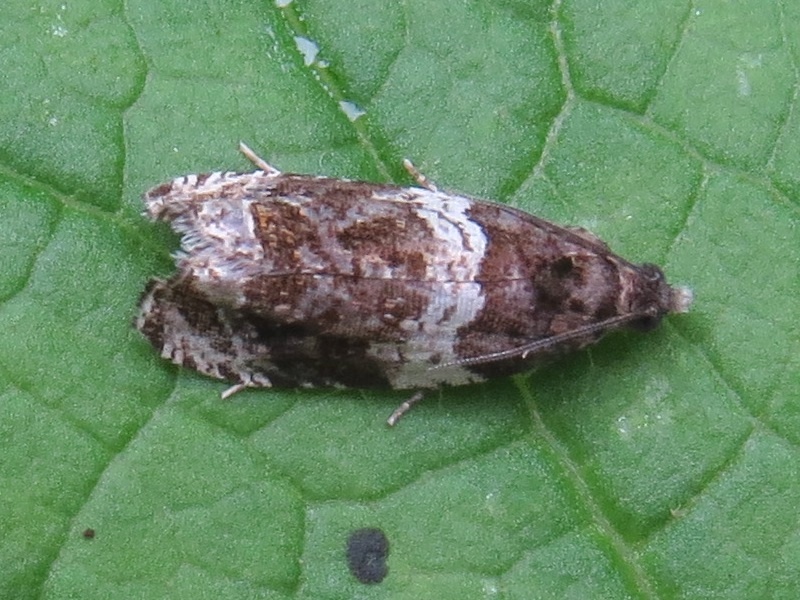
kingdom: Animalia
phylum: Arthropoda
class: Insecta
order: Lepidoptera
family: Tortricidae
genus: Olethreutes
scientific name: Olethreutes fasciatana
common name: Banded olethreutes moth
